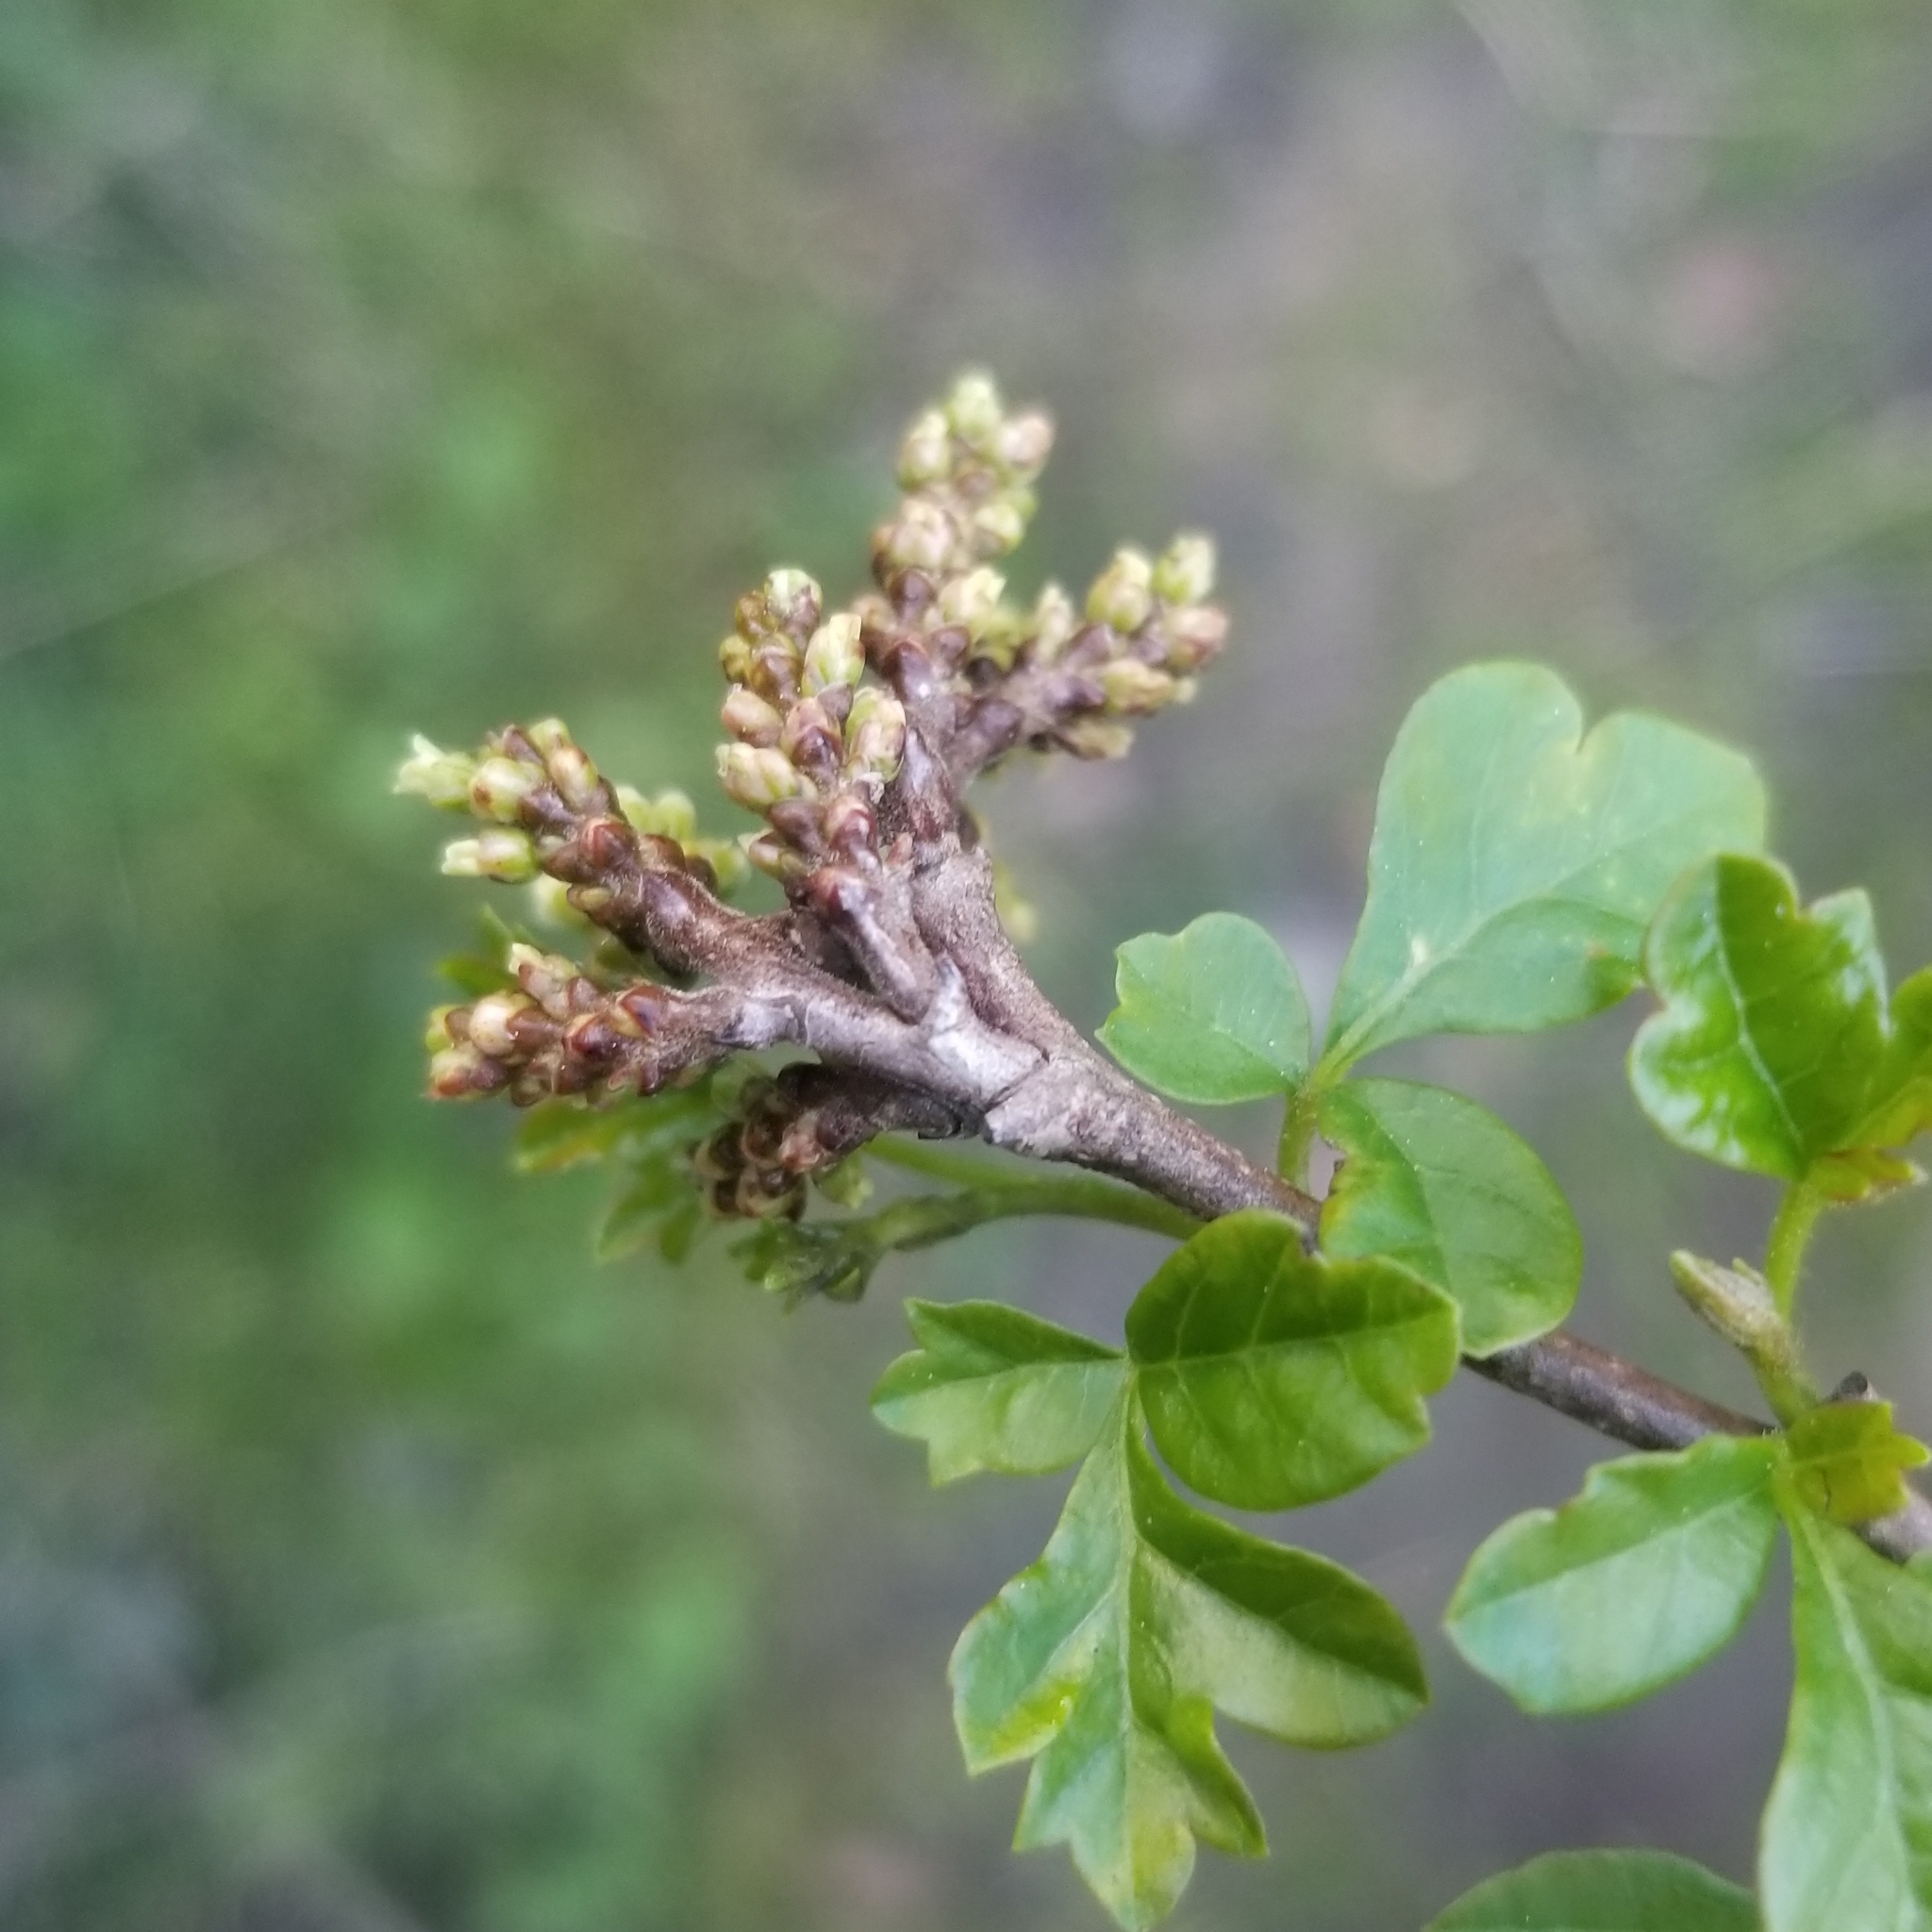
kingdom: Plantae
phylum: Tracheophyta
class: Magnoliopsida
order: Sapindales
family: Anacardiaceae
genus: Rhus
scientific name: Rhus aromatica
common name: Aromatic sumac
